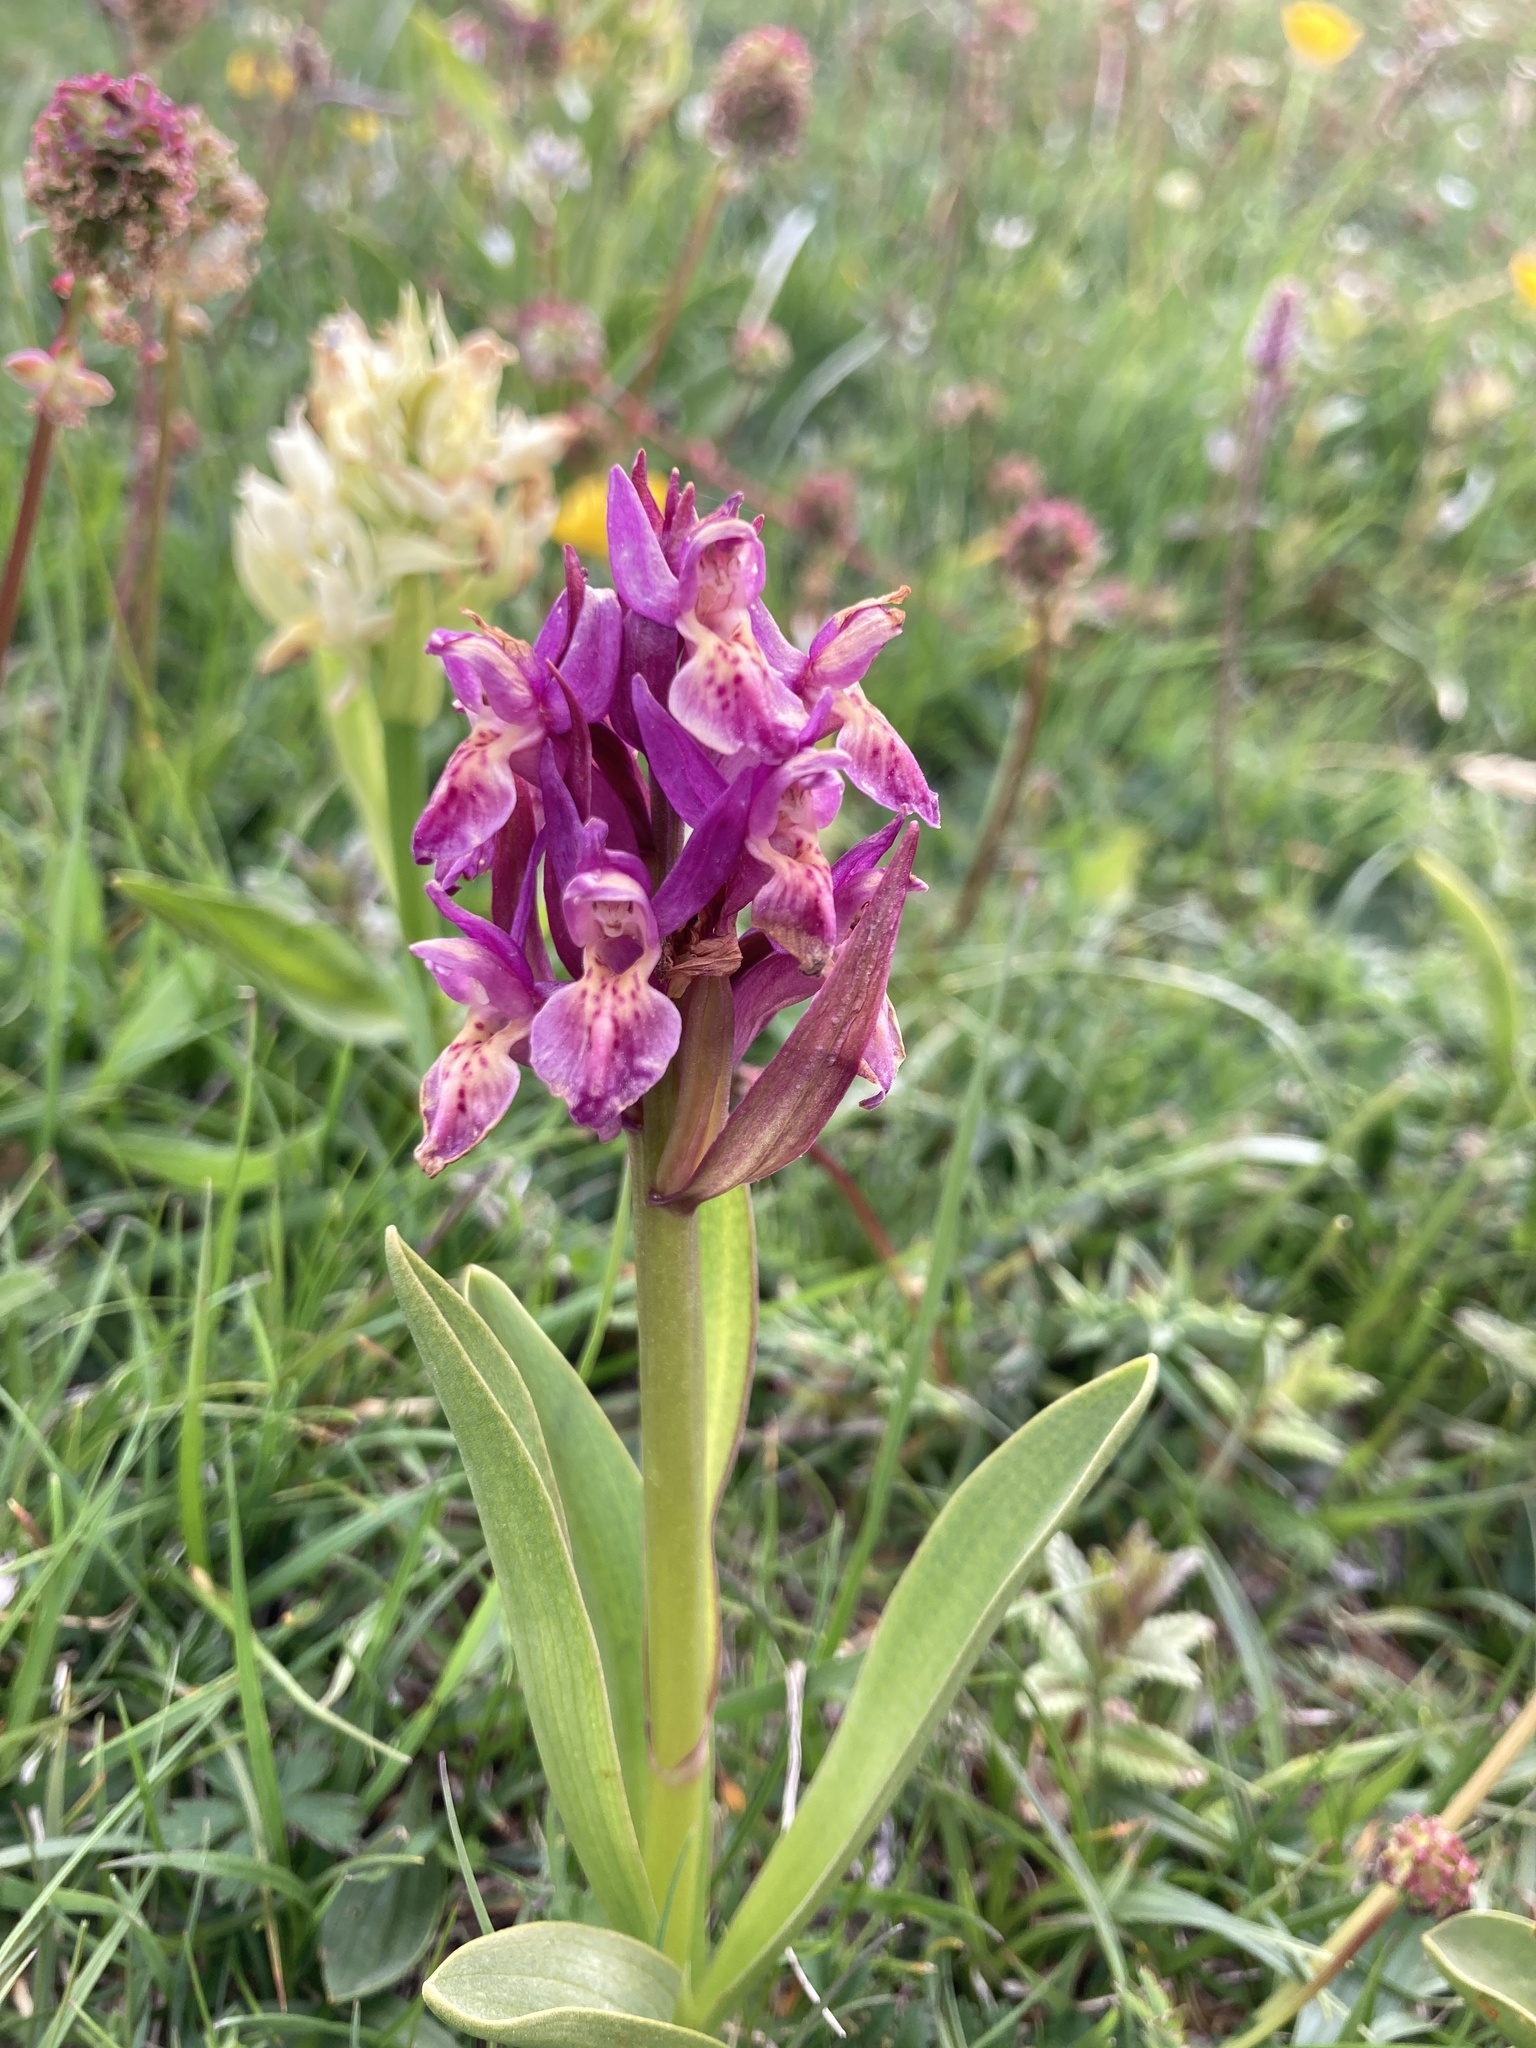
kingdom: Plantae
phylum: Tracheophyta
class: Liliopsida
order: Asparagales
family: Orchidaceae
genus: Dactylorhiza
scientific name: Dactylorhiza sambucina
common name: Elder-flowered orchid
